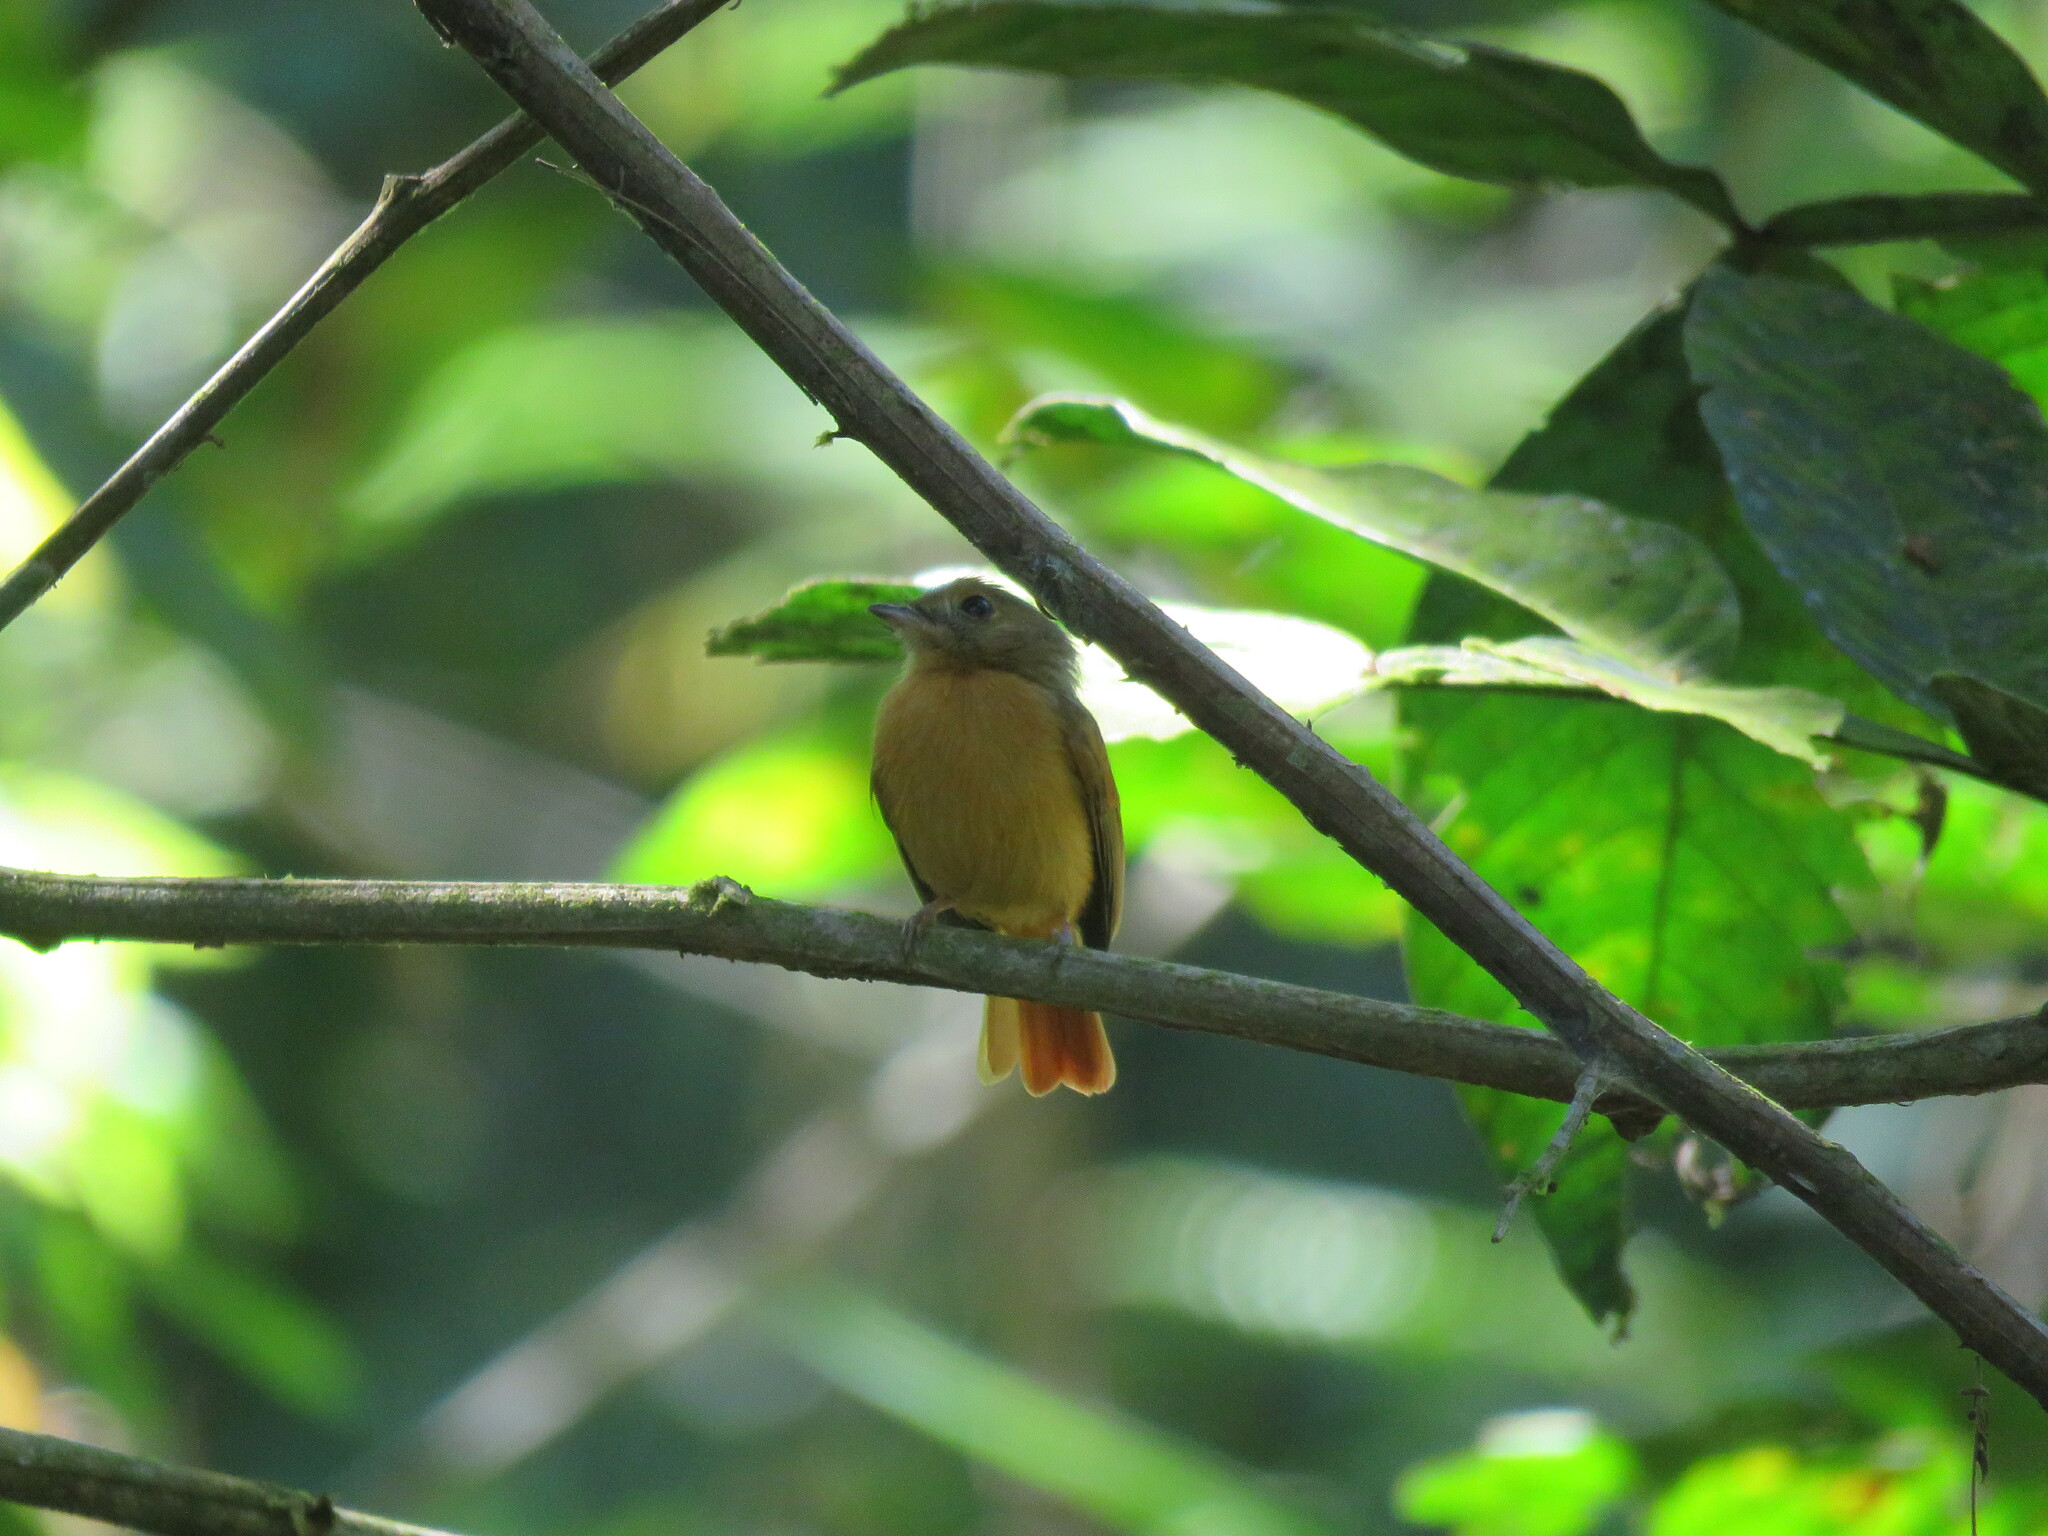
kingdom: Animalia
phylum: Chordata
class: Aves
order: Passeriformes
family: Tyrannidae
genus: Terenotriccus
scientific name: Terenotriccus erythrurus
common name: Ruddy-tailed flycatcher
